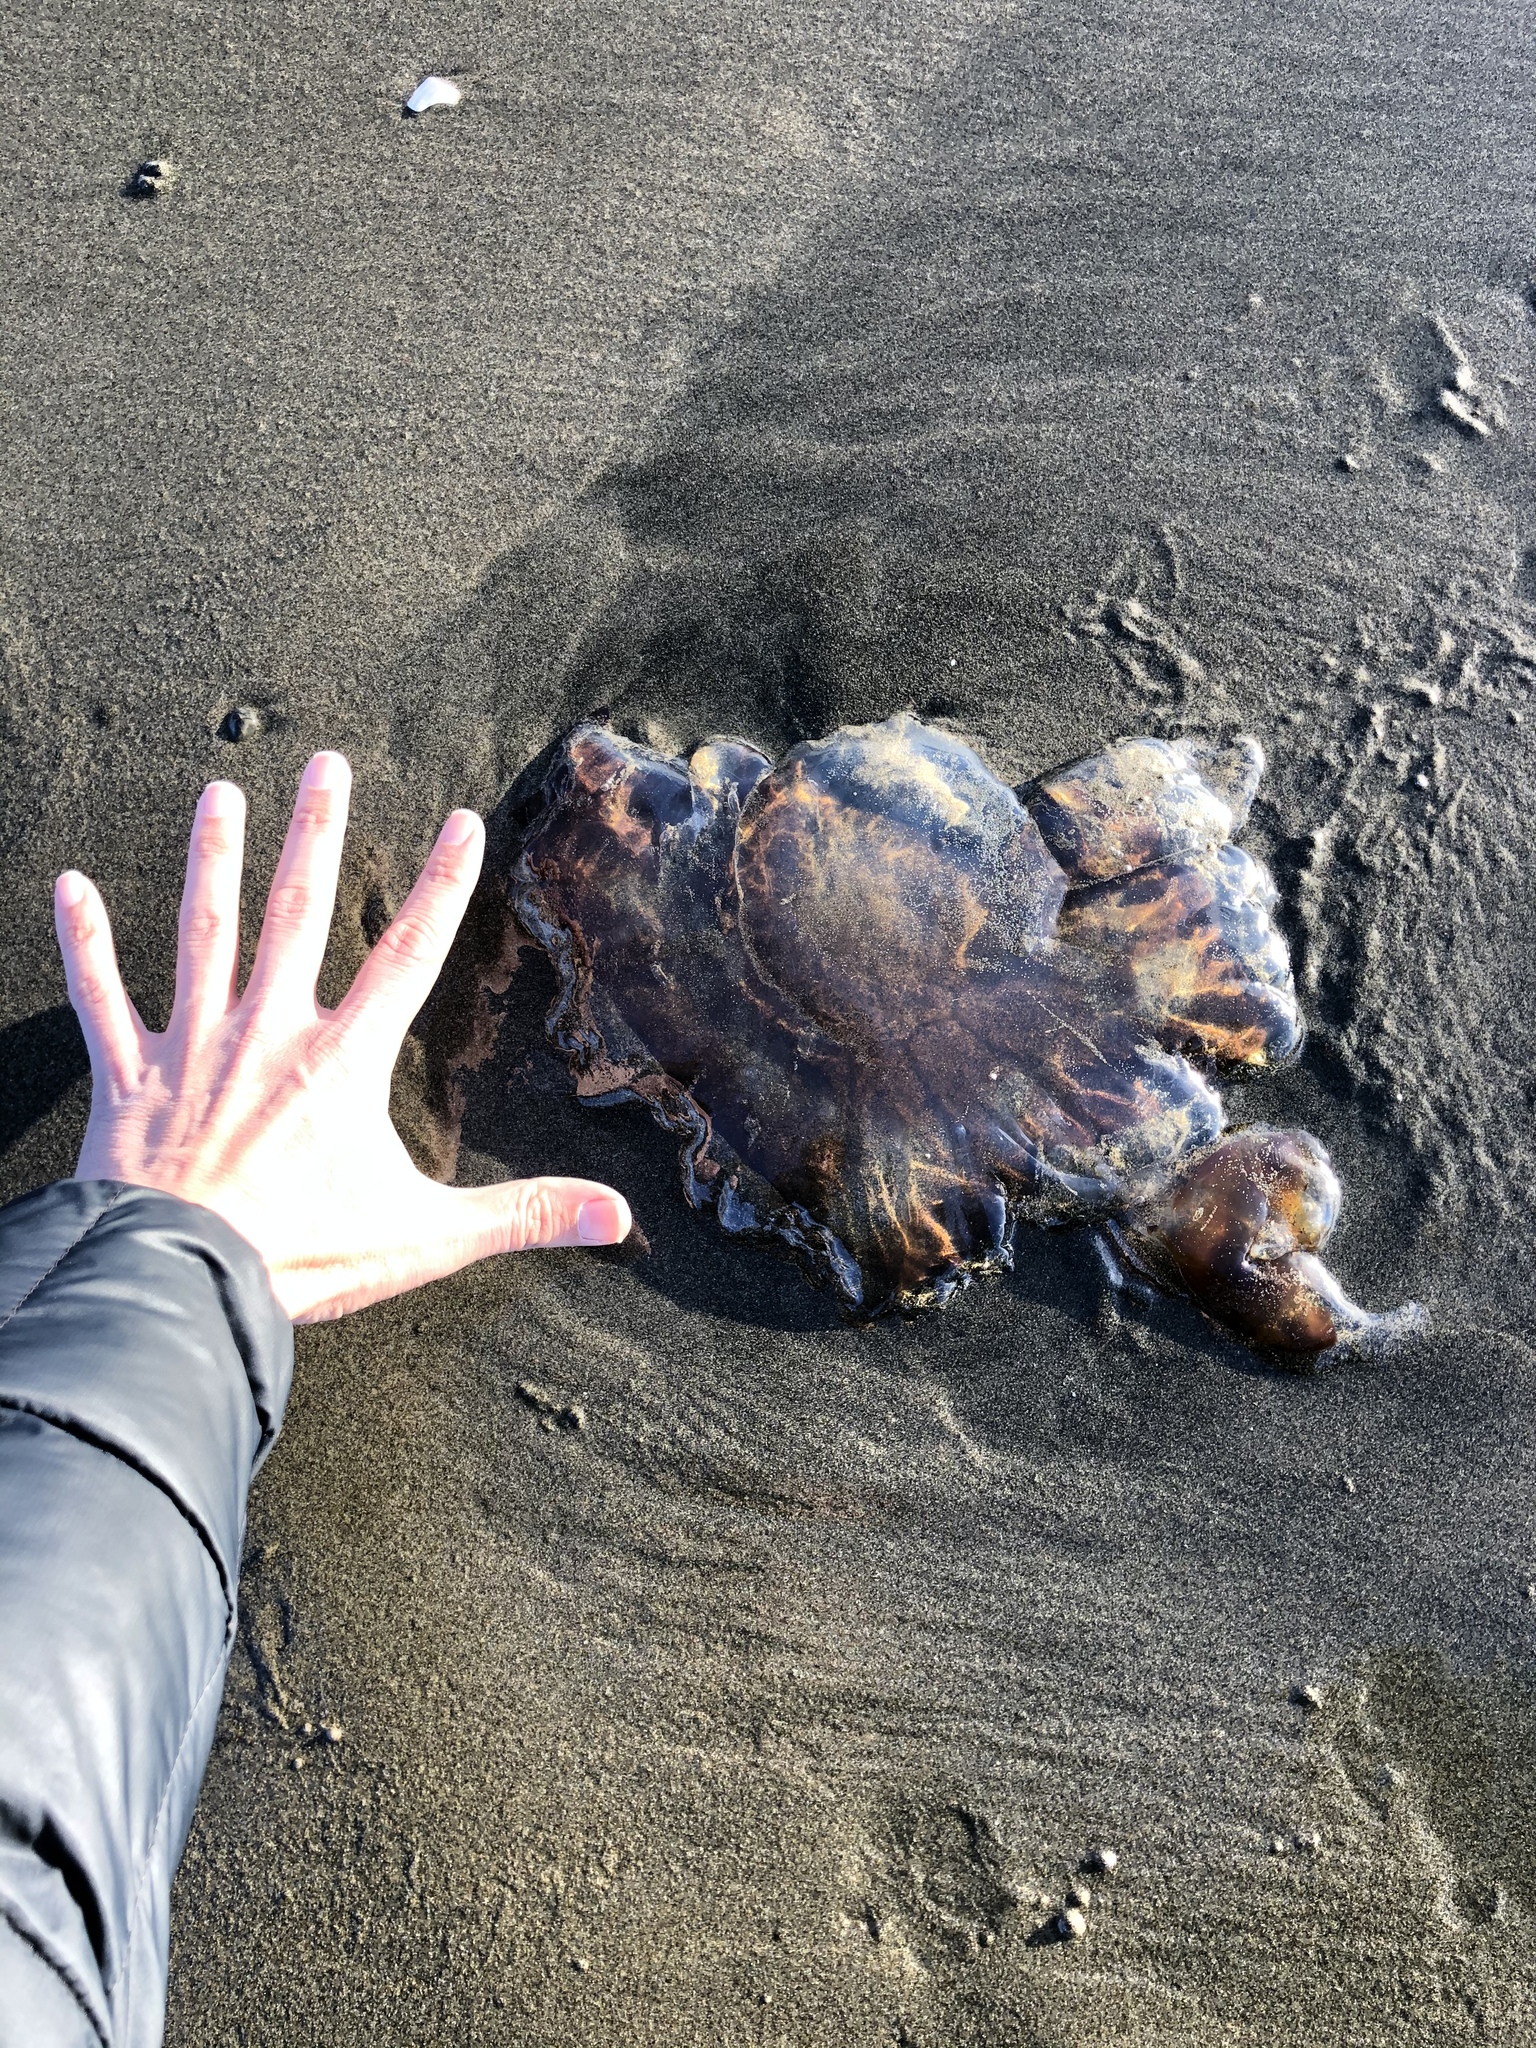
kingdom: Animalia
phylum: Cnidaria
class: Scyphozoa
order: Semaeostomeae
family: Pelagiidae
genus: Chrysaora
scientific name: Chrysaora fuscescens
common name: Sea nettle
